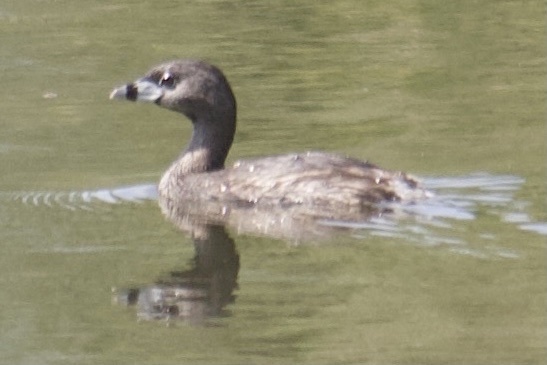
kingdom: Animalia
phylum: Chordata
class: Aves
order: Podicipediformes
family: Podicipedidae
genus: Podilymbus
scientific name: Podilymbus podiceps
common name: Pied-billed grebe
